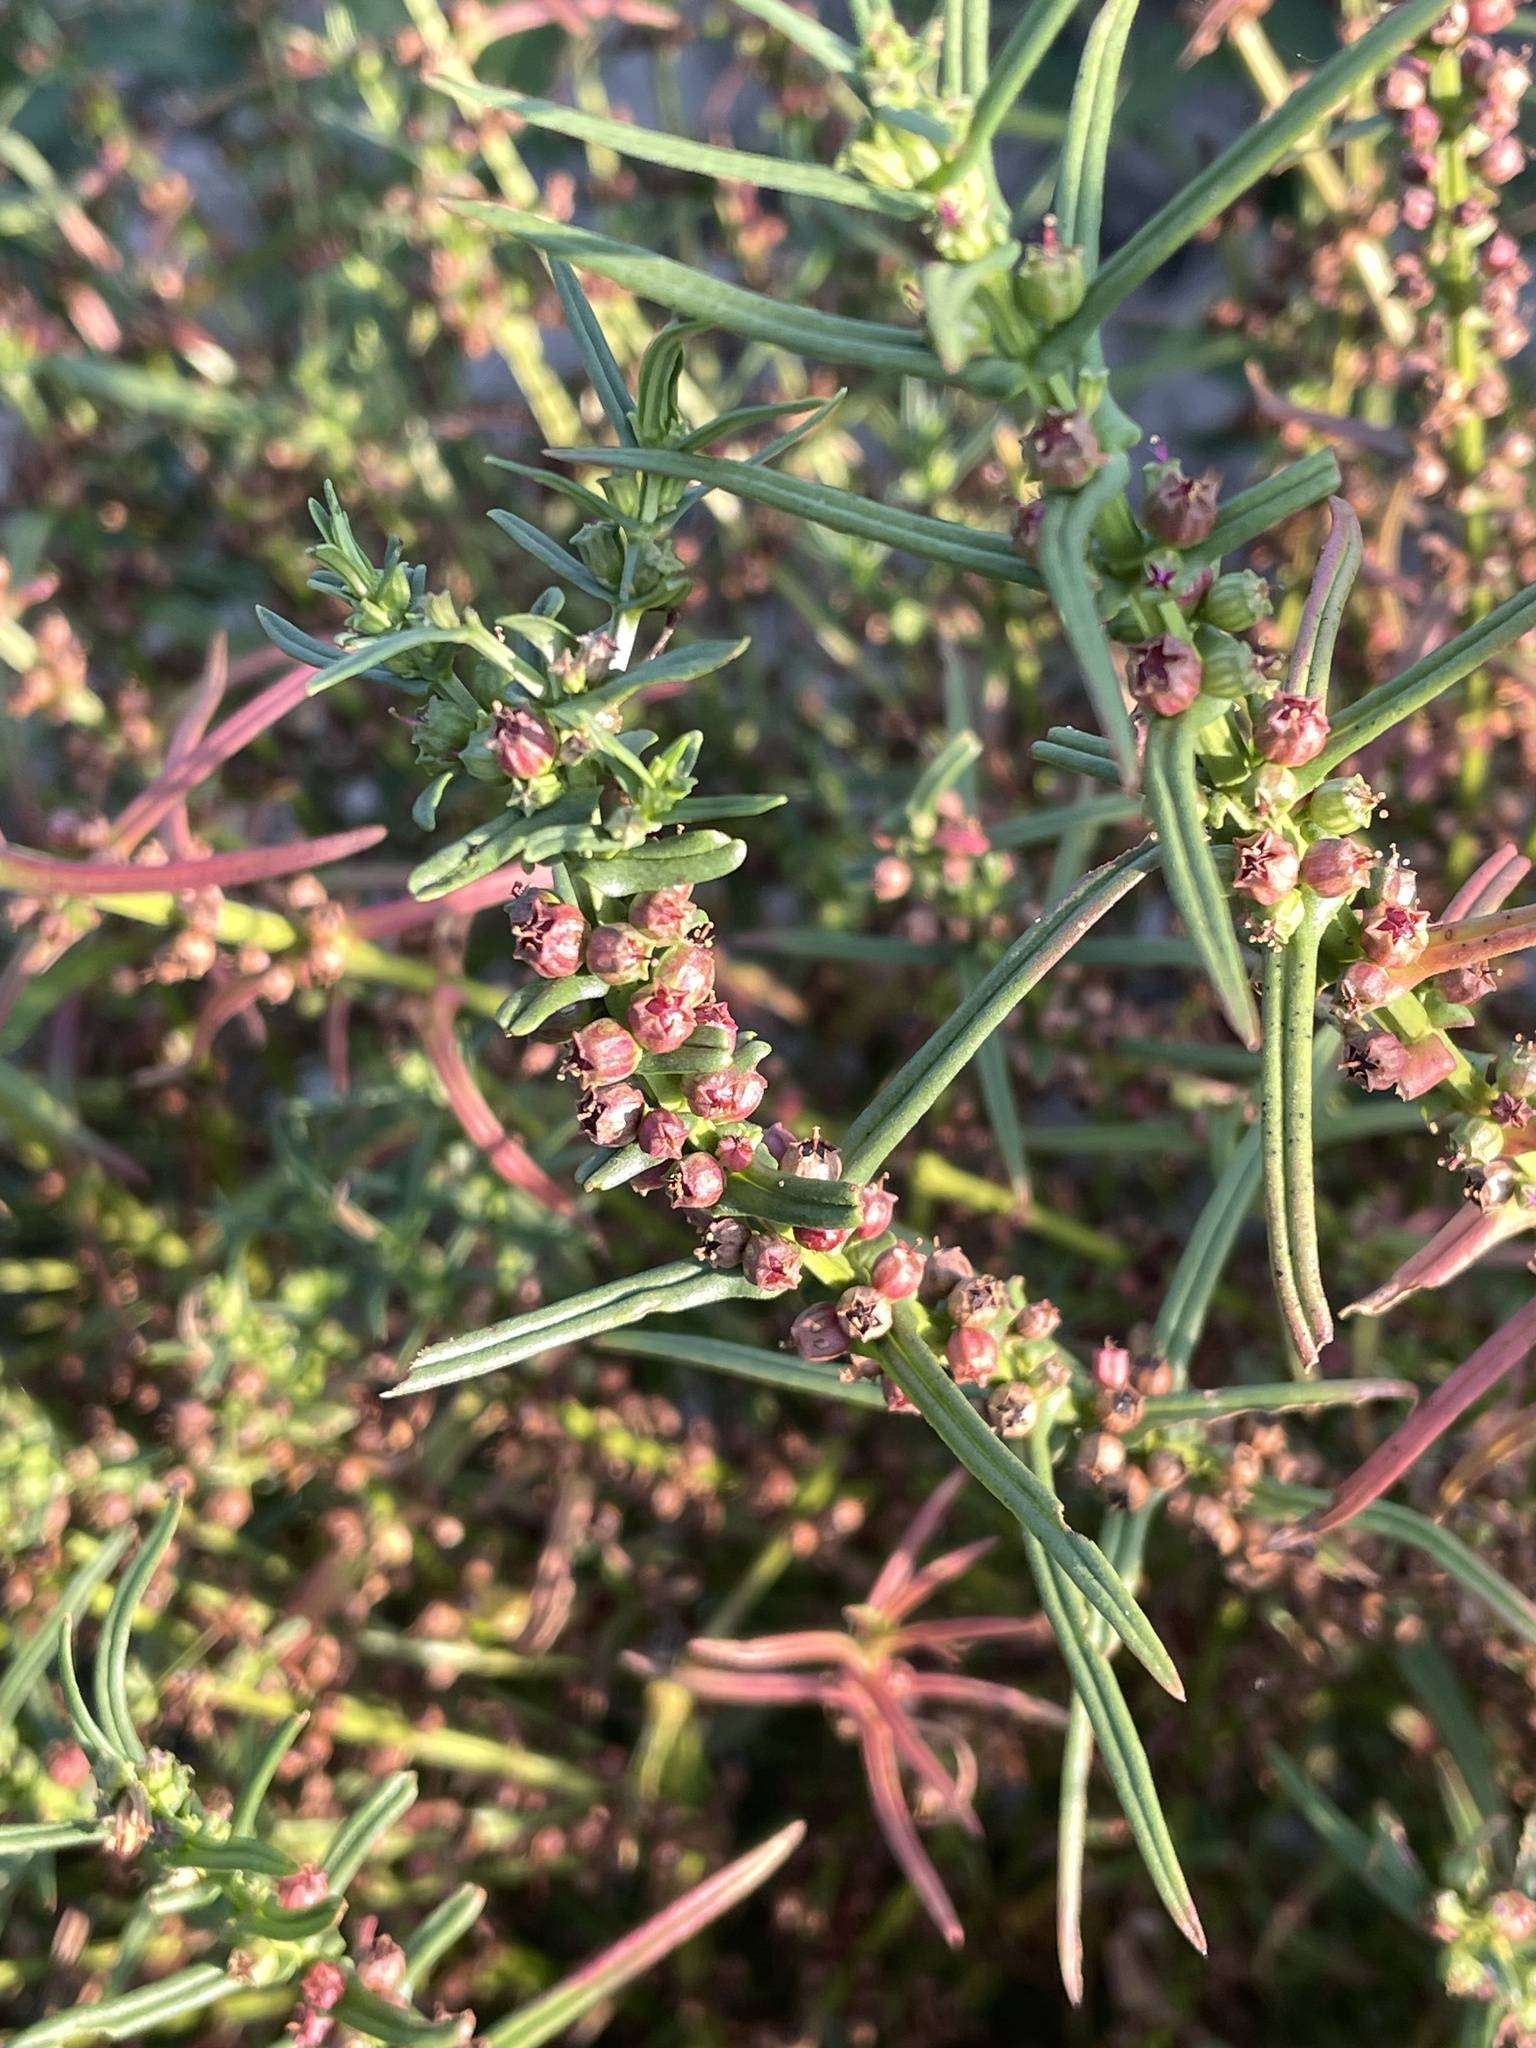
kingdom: Plantae
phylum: Tracheophyta
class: Magnoliopsida
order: Myrtales
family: Lythraceae
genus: Ammannia
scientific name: Ammannia coccinea
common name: Valley redstem
